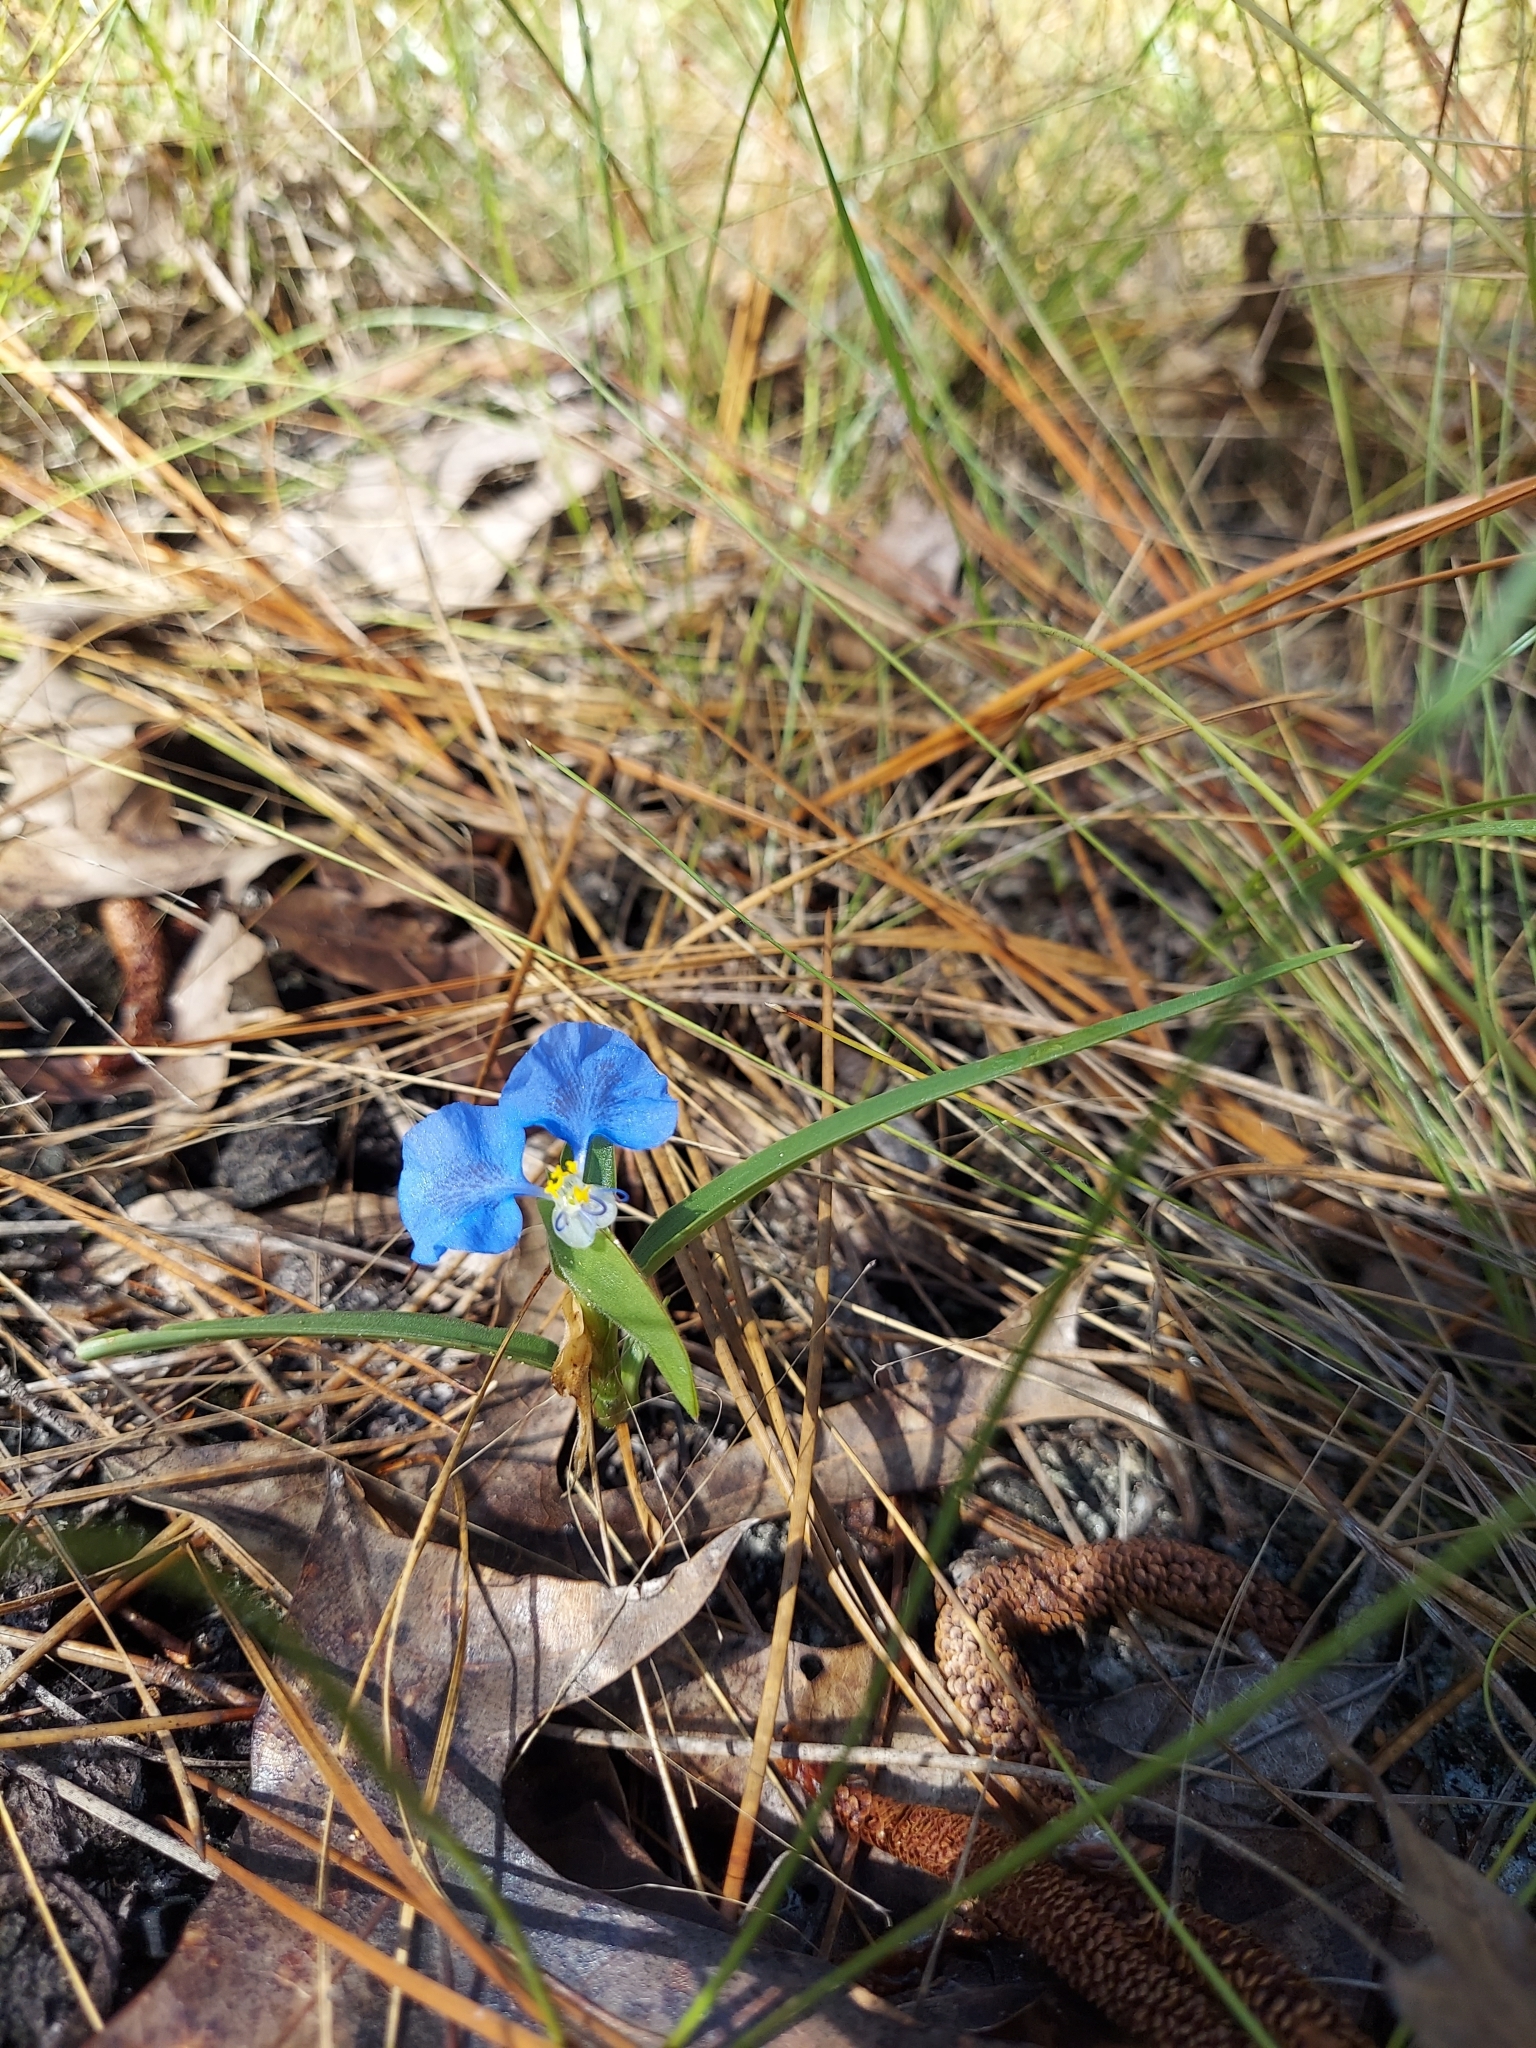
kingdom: Plantae
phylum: Tracheophyta
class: Liliopsida
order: Commelinales
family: Commelinaceae
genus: Commelina
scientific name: Commelina erecta
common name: Blousel blommetjie
